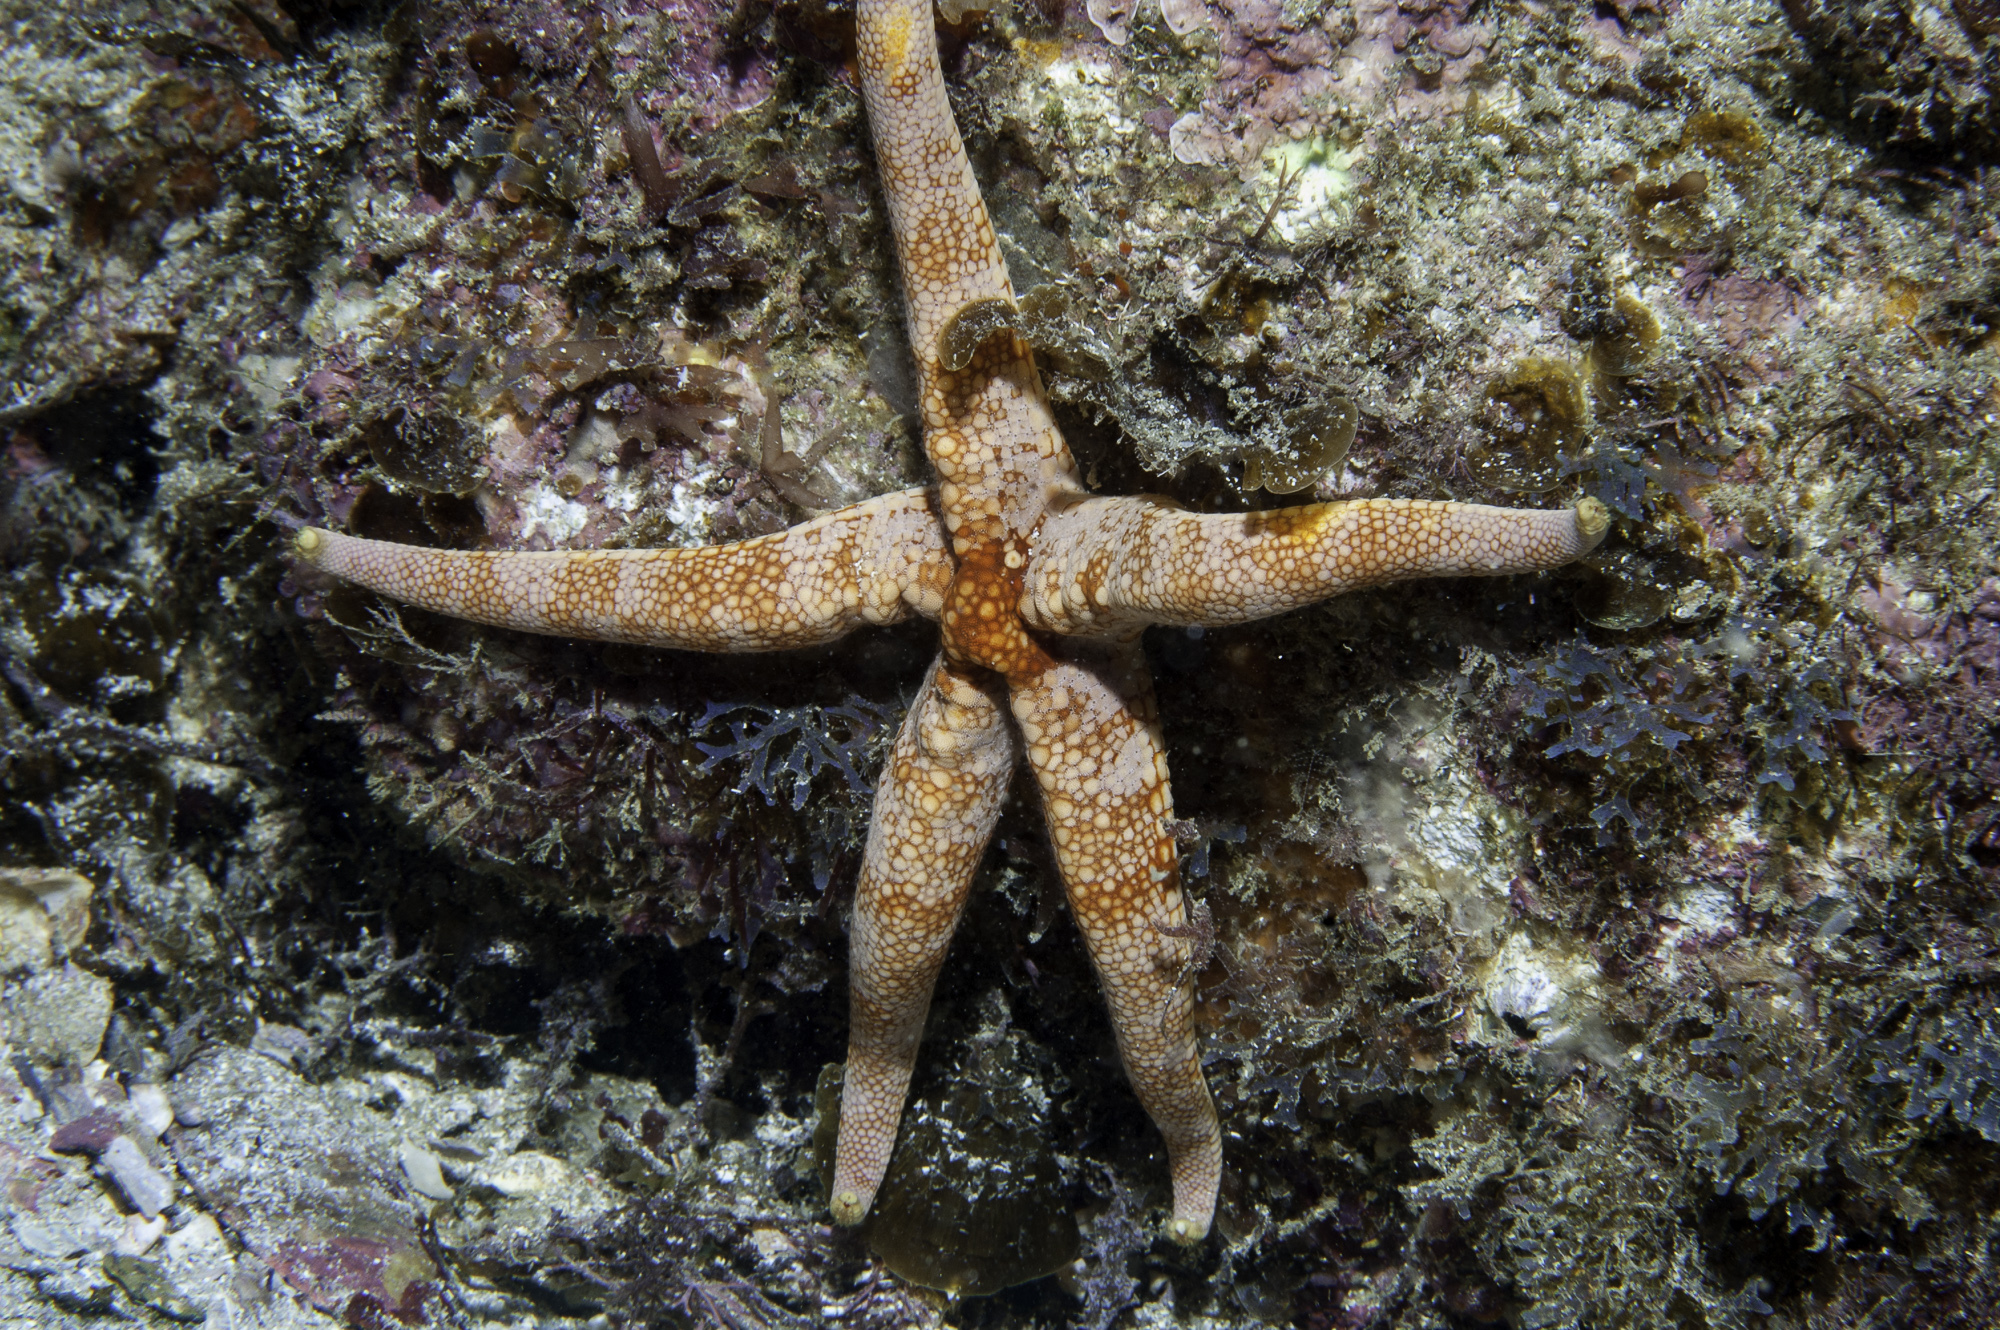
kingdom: Animalia
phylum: Echinodermata
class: Asteroidea
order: Valvatida
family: Ophidiasteridae
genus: Narcissia
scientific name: Narcissia trigonaria
